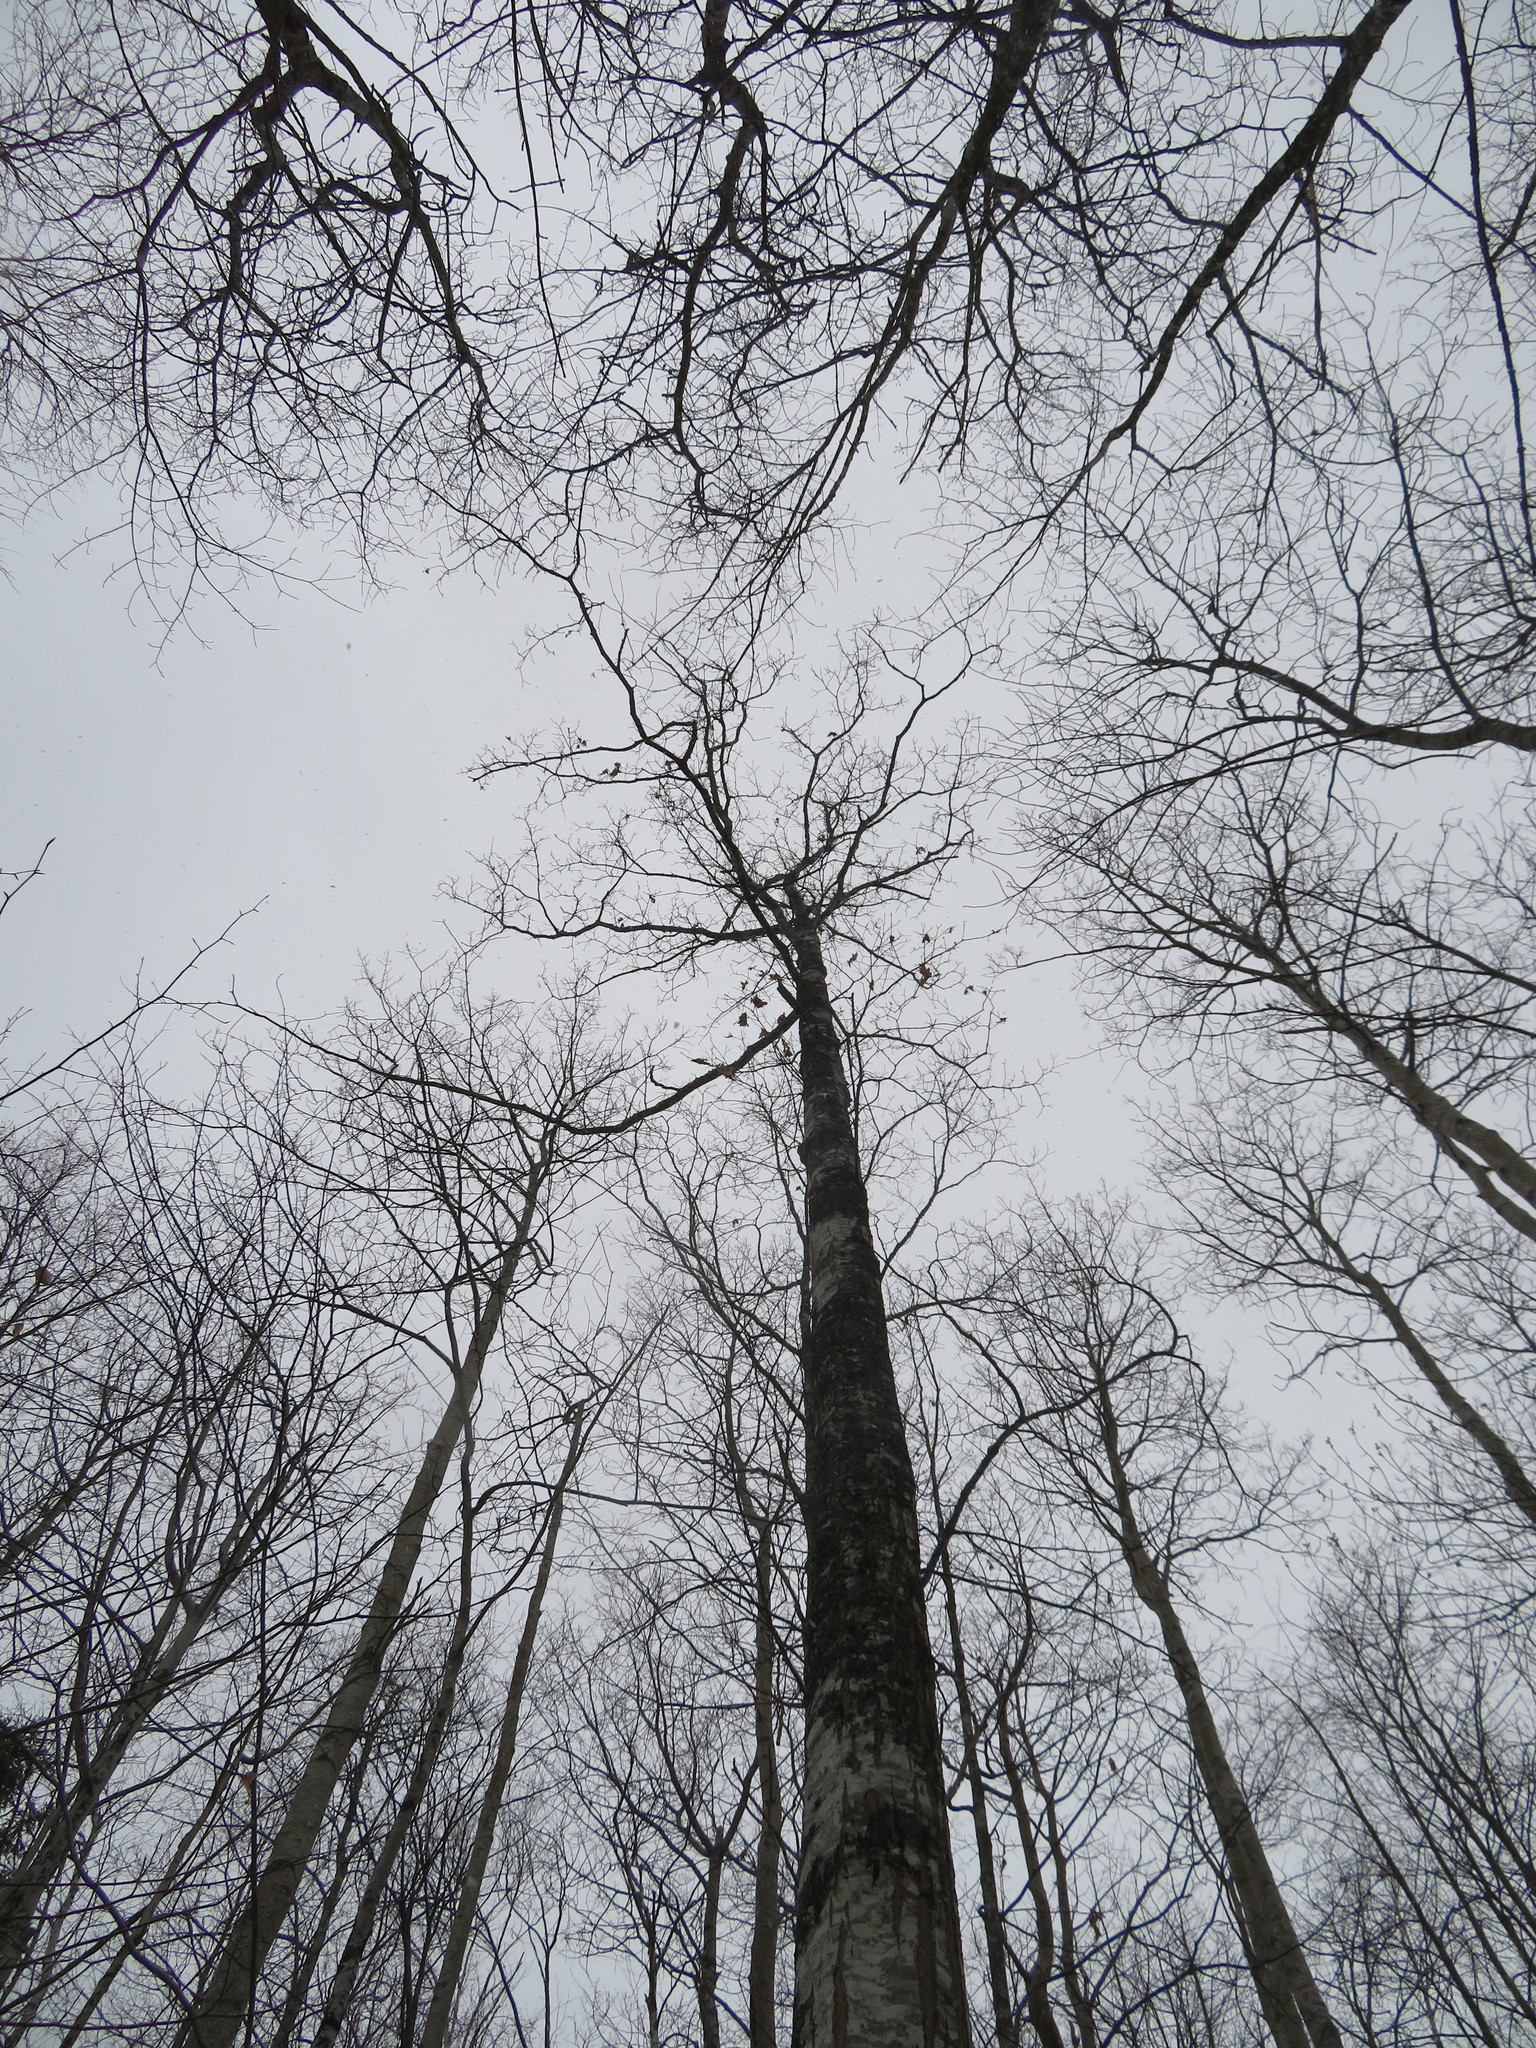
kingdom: Plantae
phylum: Tracheophyta
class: Magnoliopsida
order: Fagales
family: Fagaceae
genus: Quercus
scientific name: Quercus rubra
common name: Red oak
